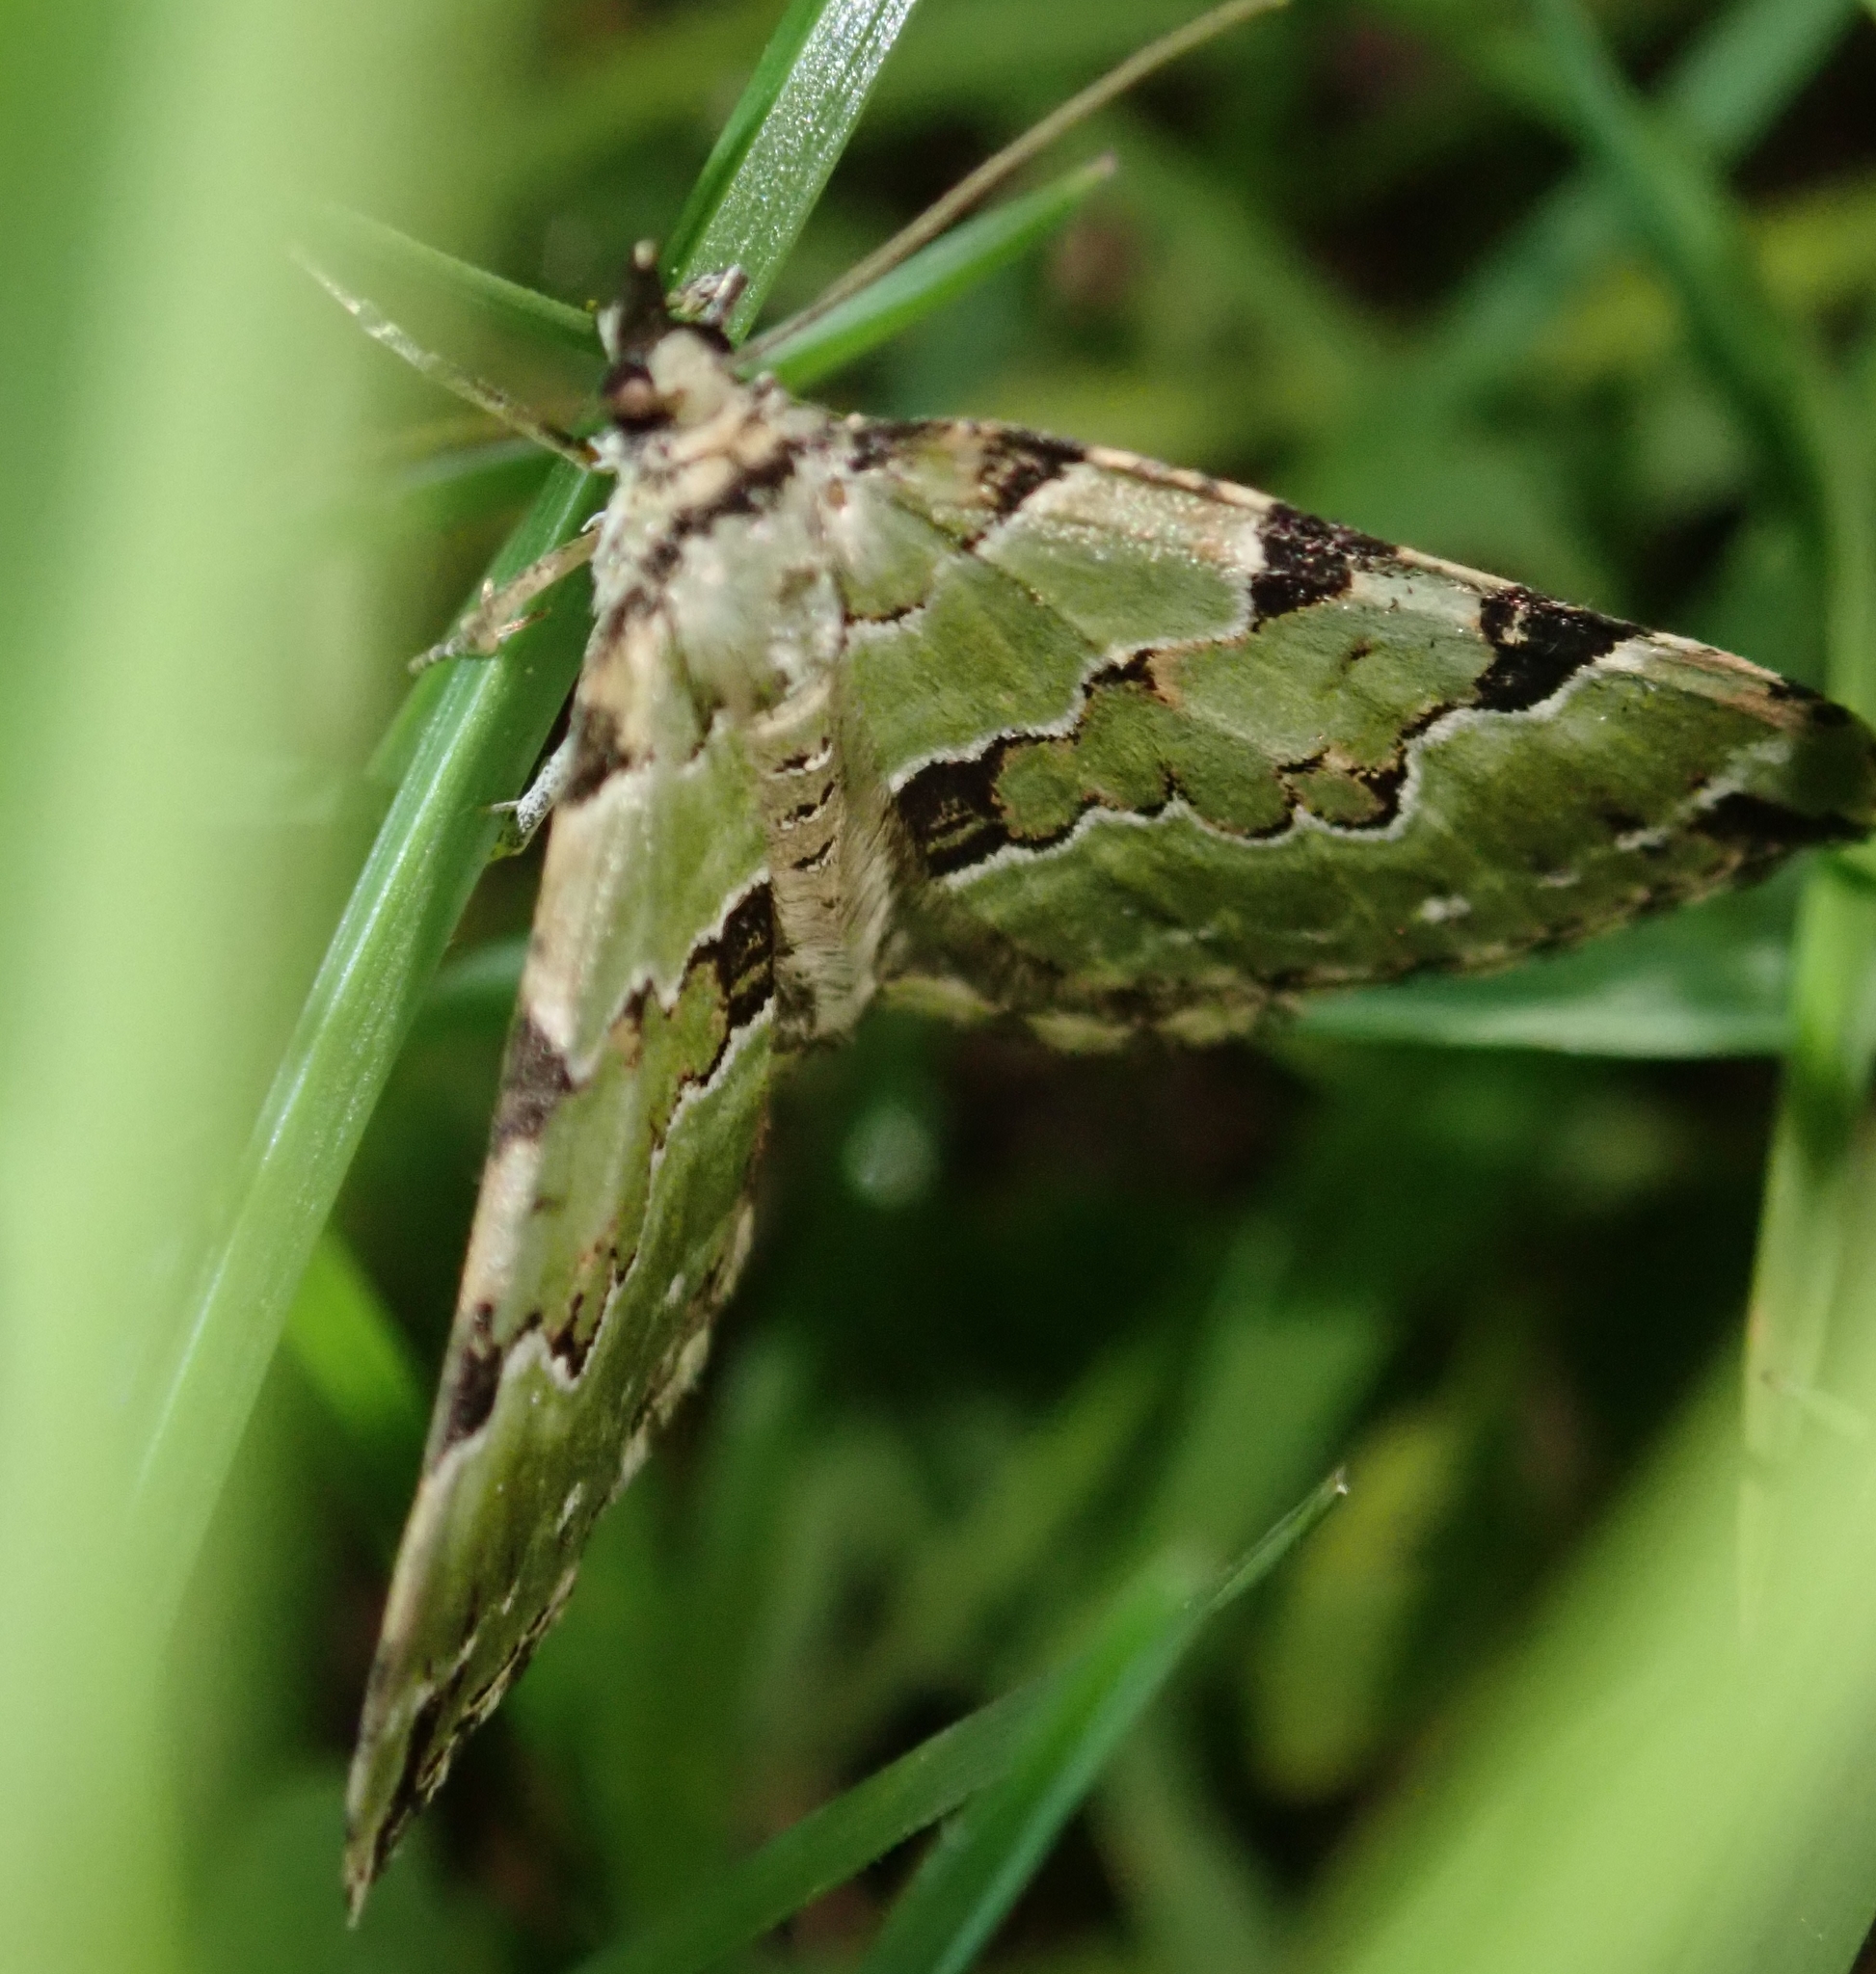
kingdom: Animalia
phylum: Arthropoda
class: Insecta
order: Lepidoptera
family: Geometridae
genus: Colostygia
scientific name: Colostygia pectinataria
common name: Green carpet
